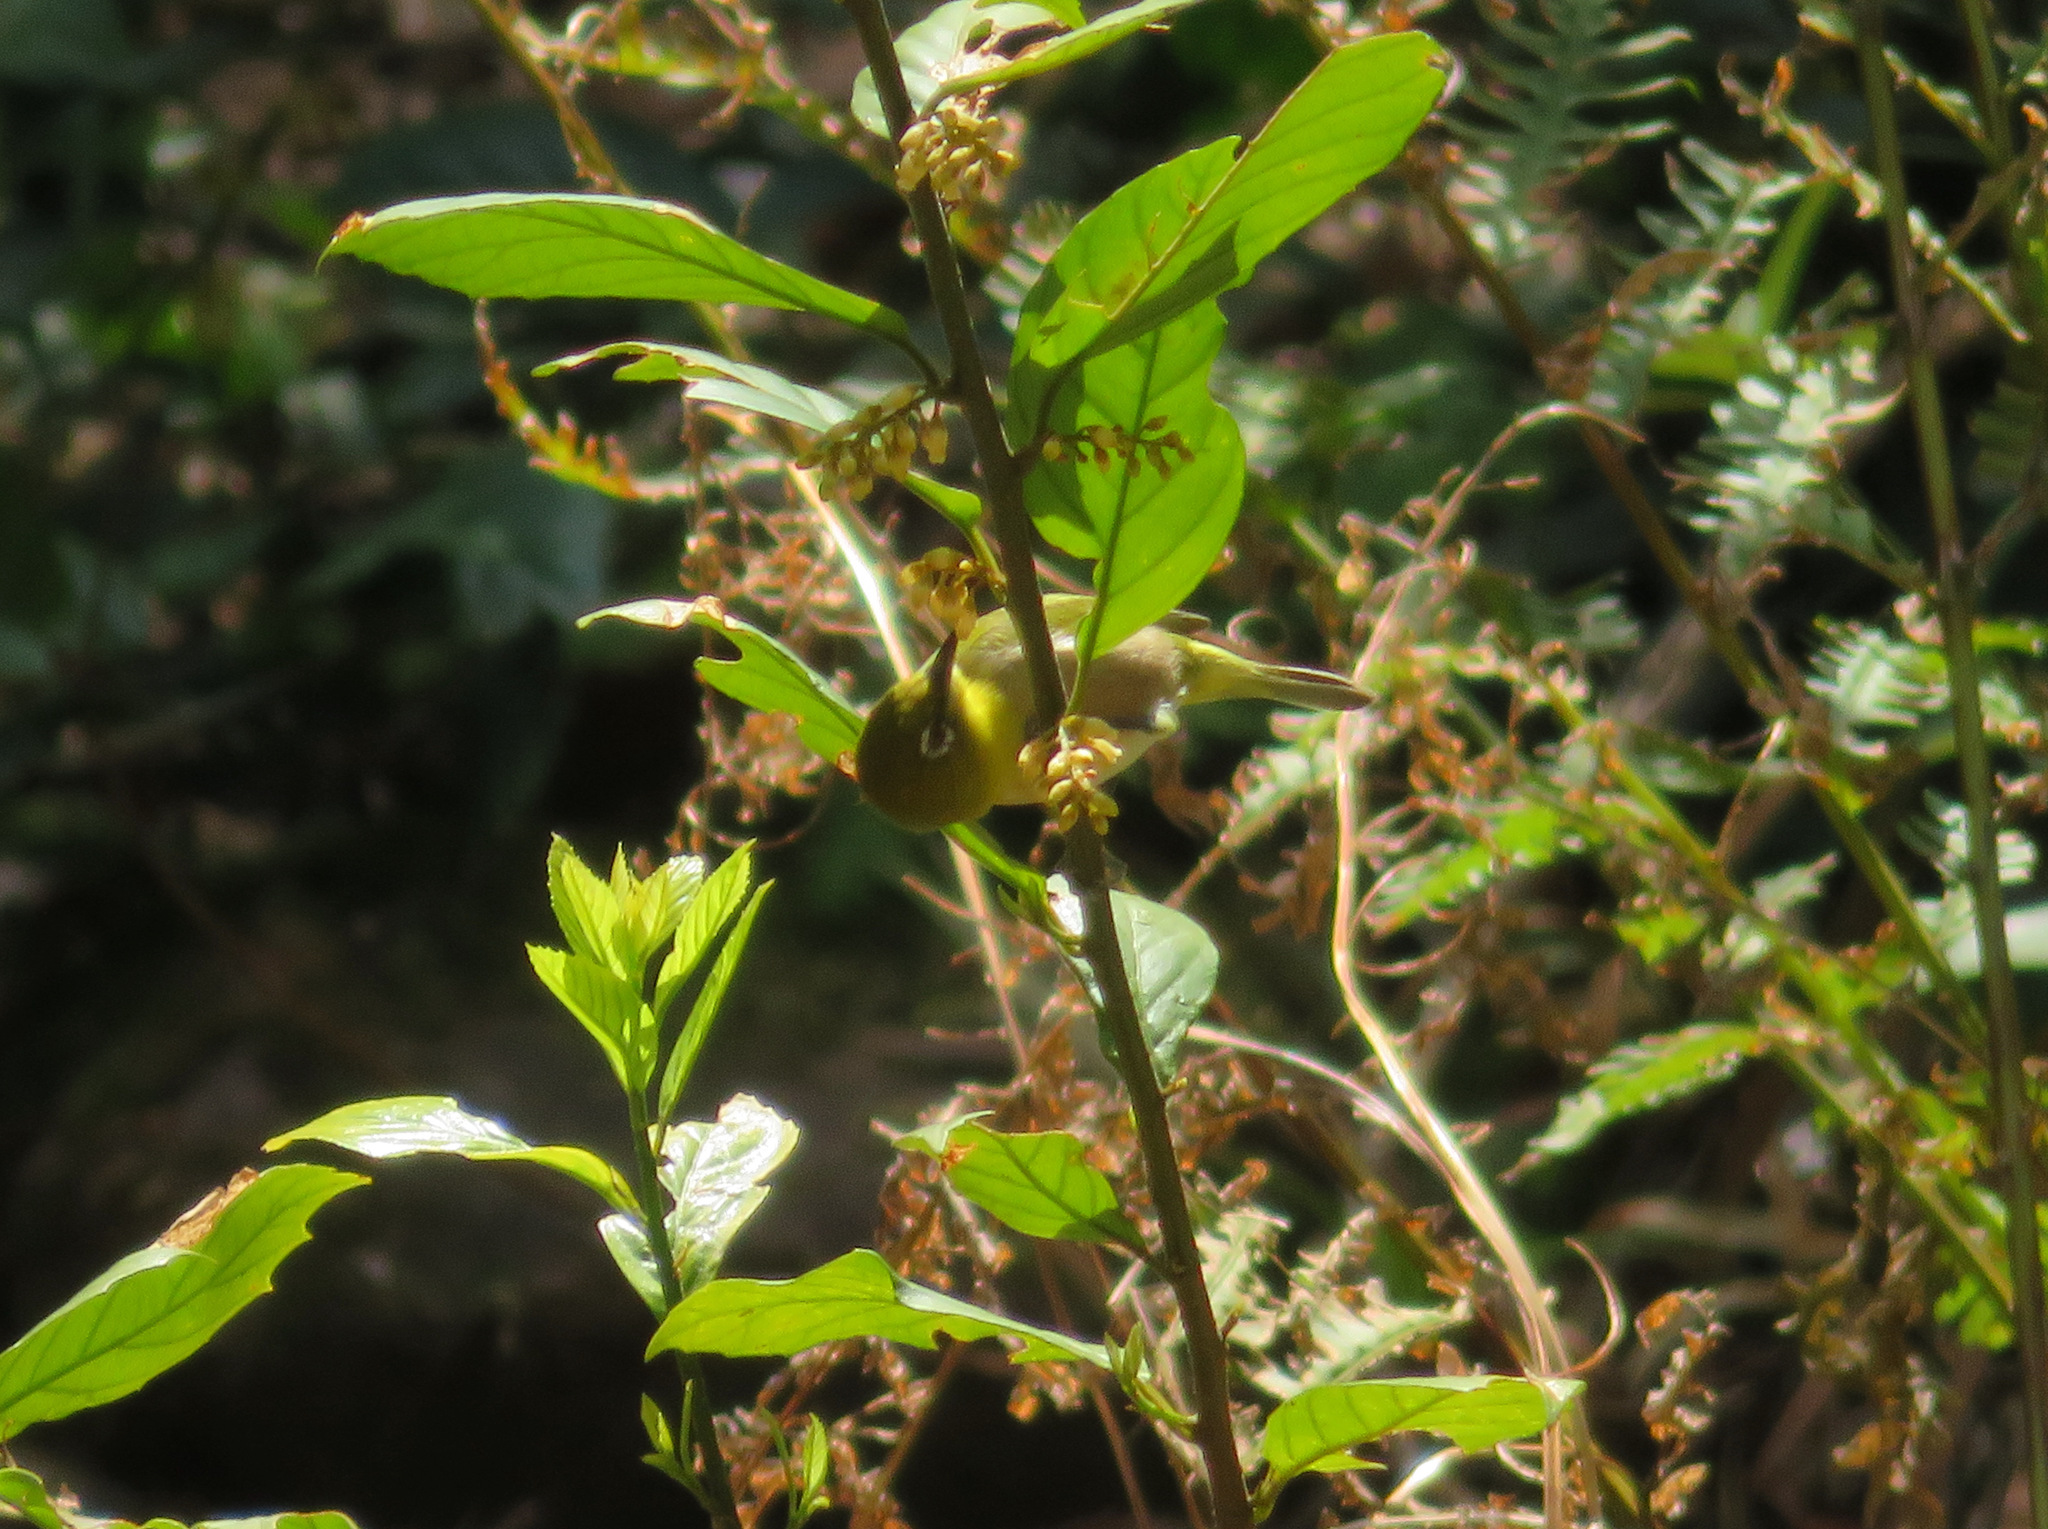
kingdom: Animalia
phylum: Chordata
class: Aves
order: Passeriformes
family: Zosteropidae
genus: Zosterops
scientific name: Zosterops japonicus
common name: Japanese white-eye
